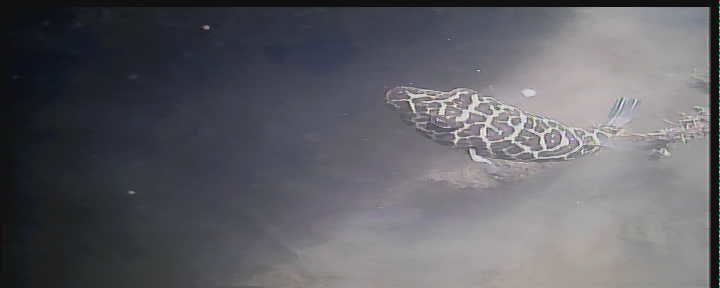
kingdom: Animalia
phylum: Chordata
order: Tetraodontiformes
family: Tetraodontidae
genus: Sphoeroides
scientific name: Sphoeroides testudineus
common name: Checkered puffer
